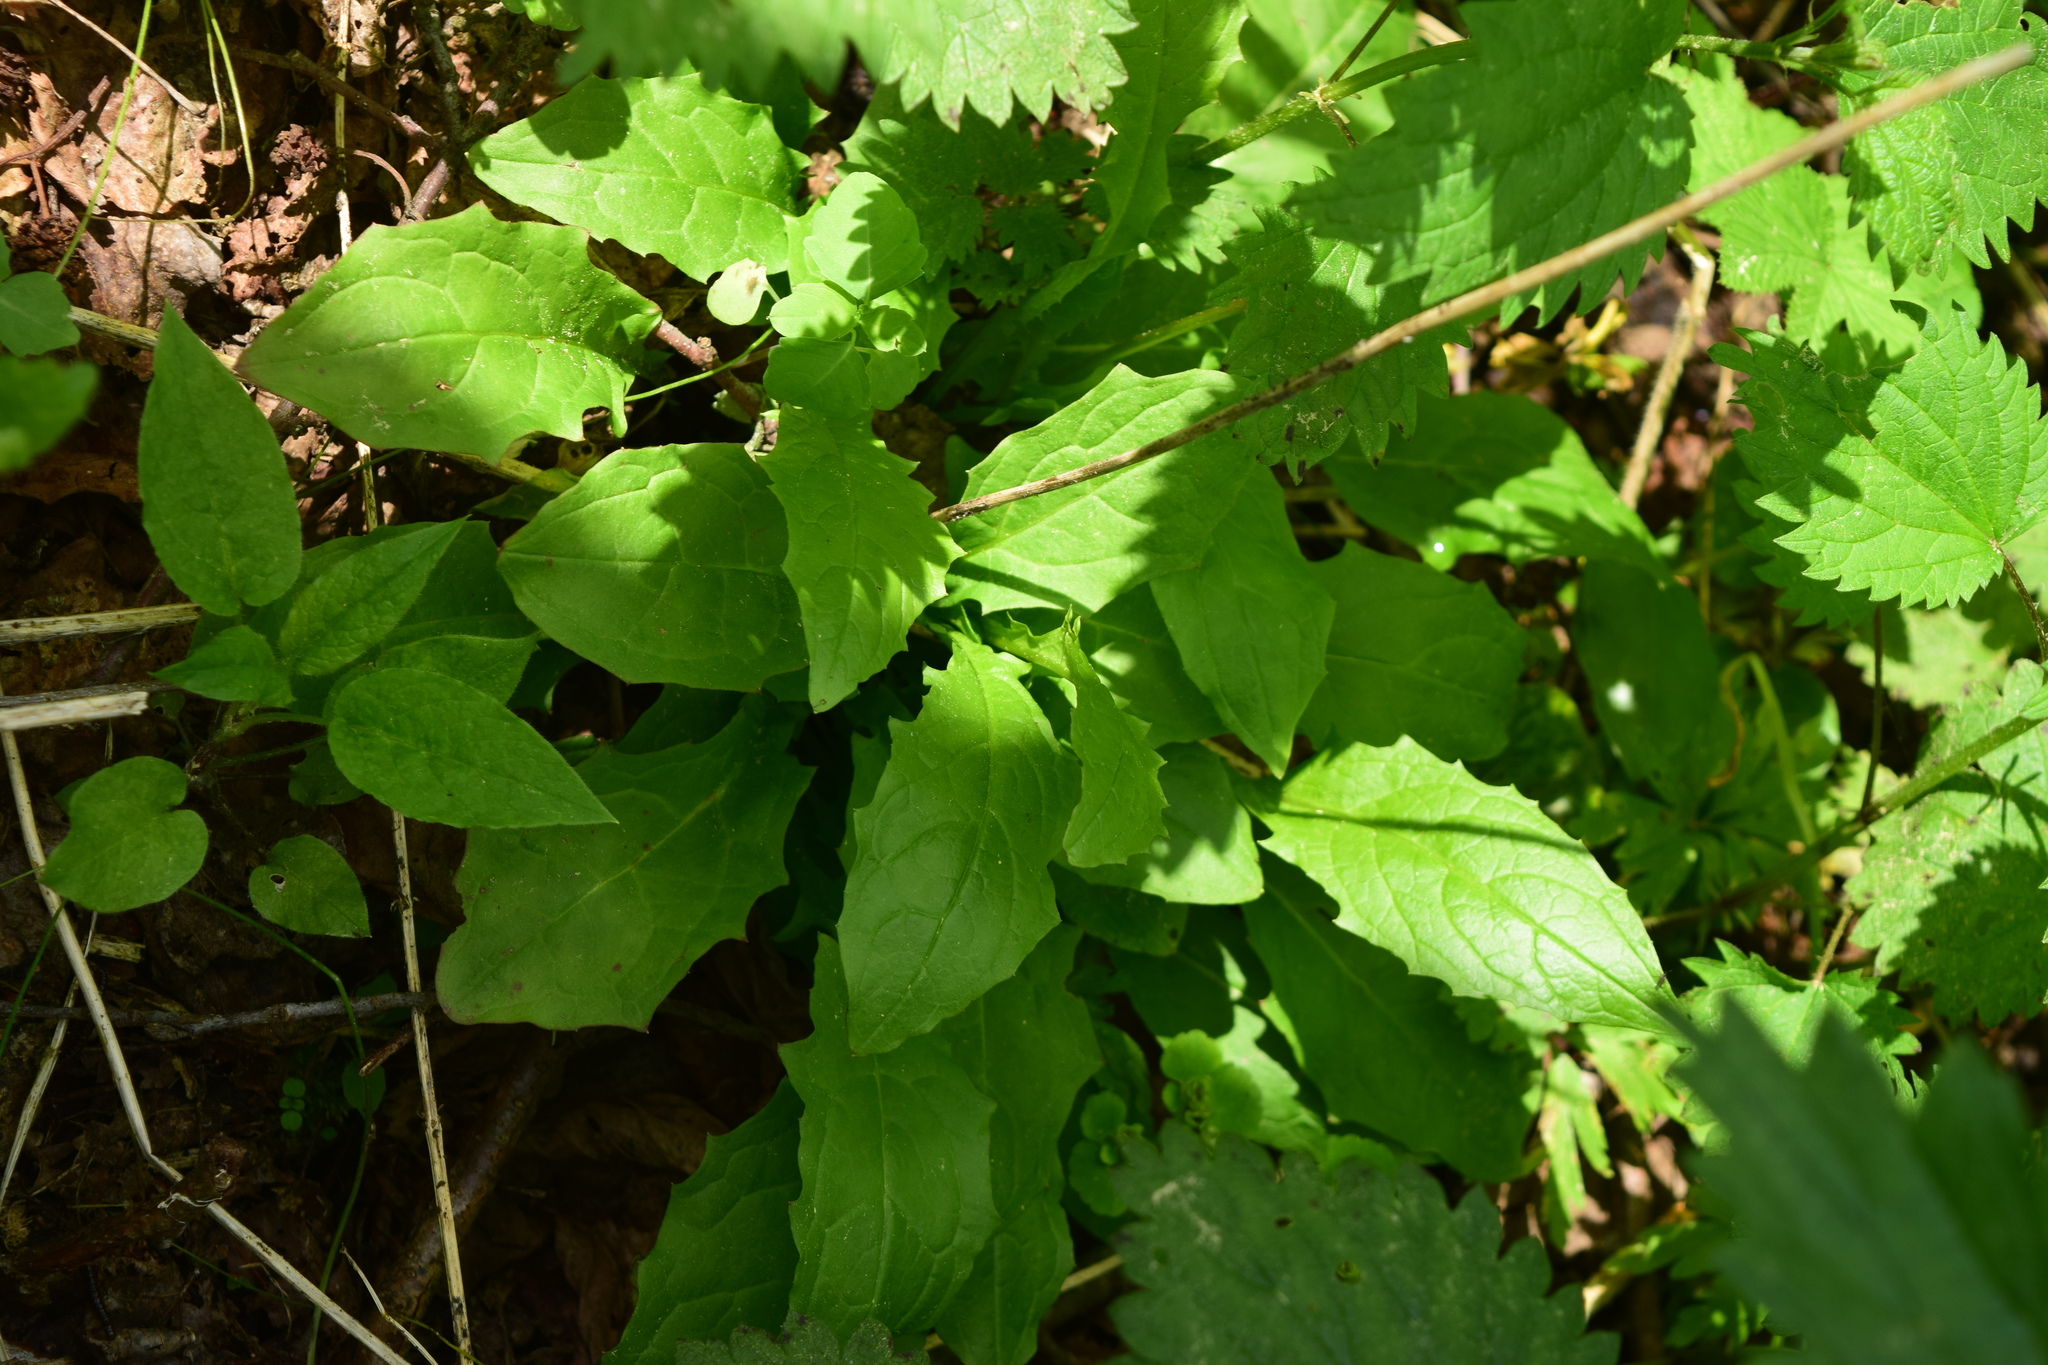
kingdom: Plantae
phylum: Tracheophyta
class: Magnoliopsida
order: Asterales
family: Asteraceae
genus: Crepis
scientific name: Crepis paludosa
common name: Marsh hawk's-beard
